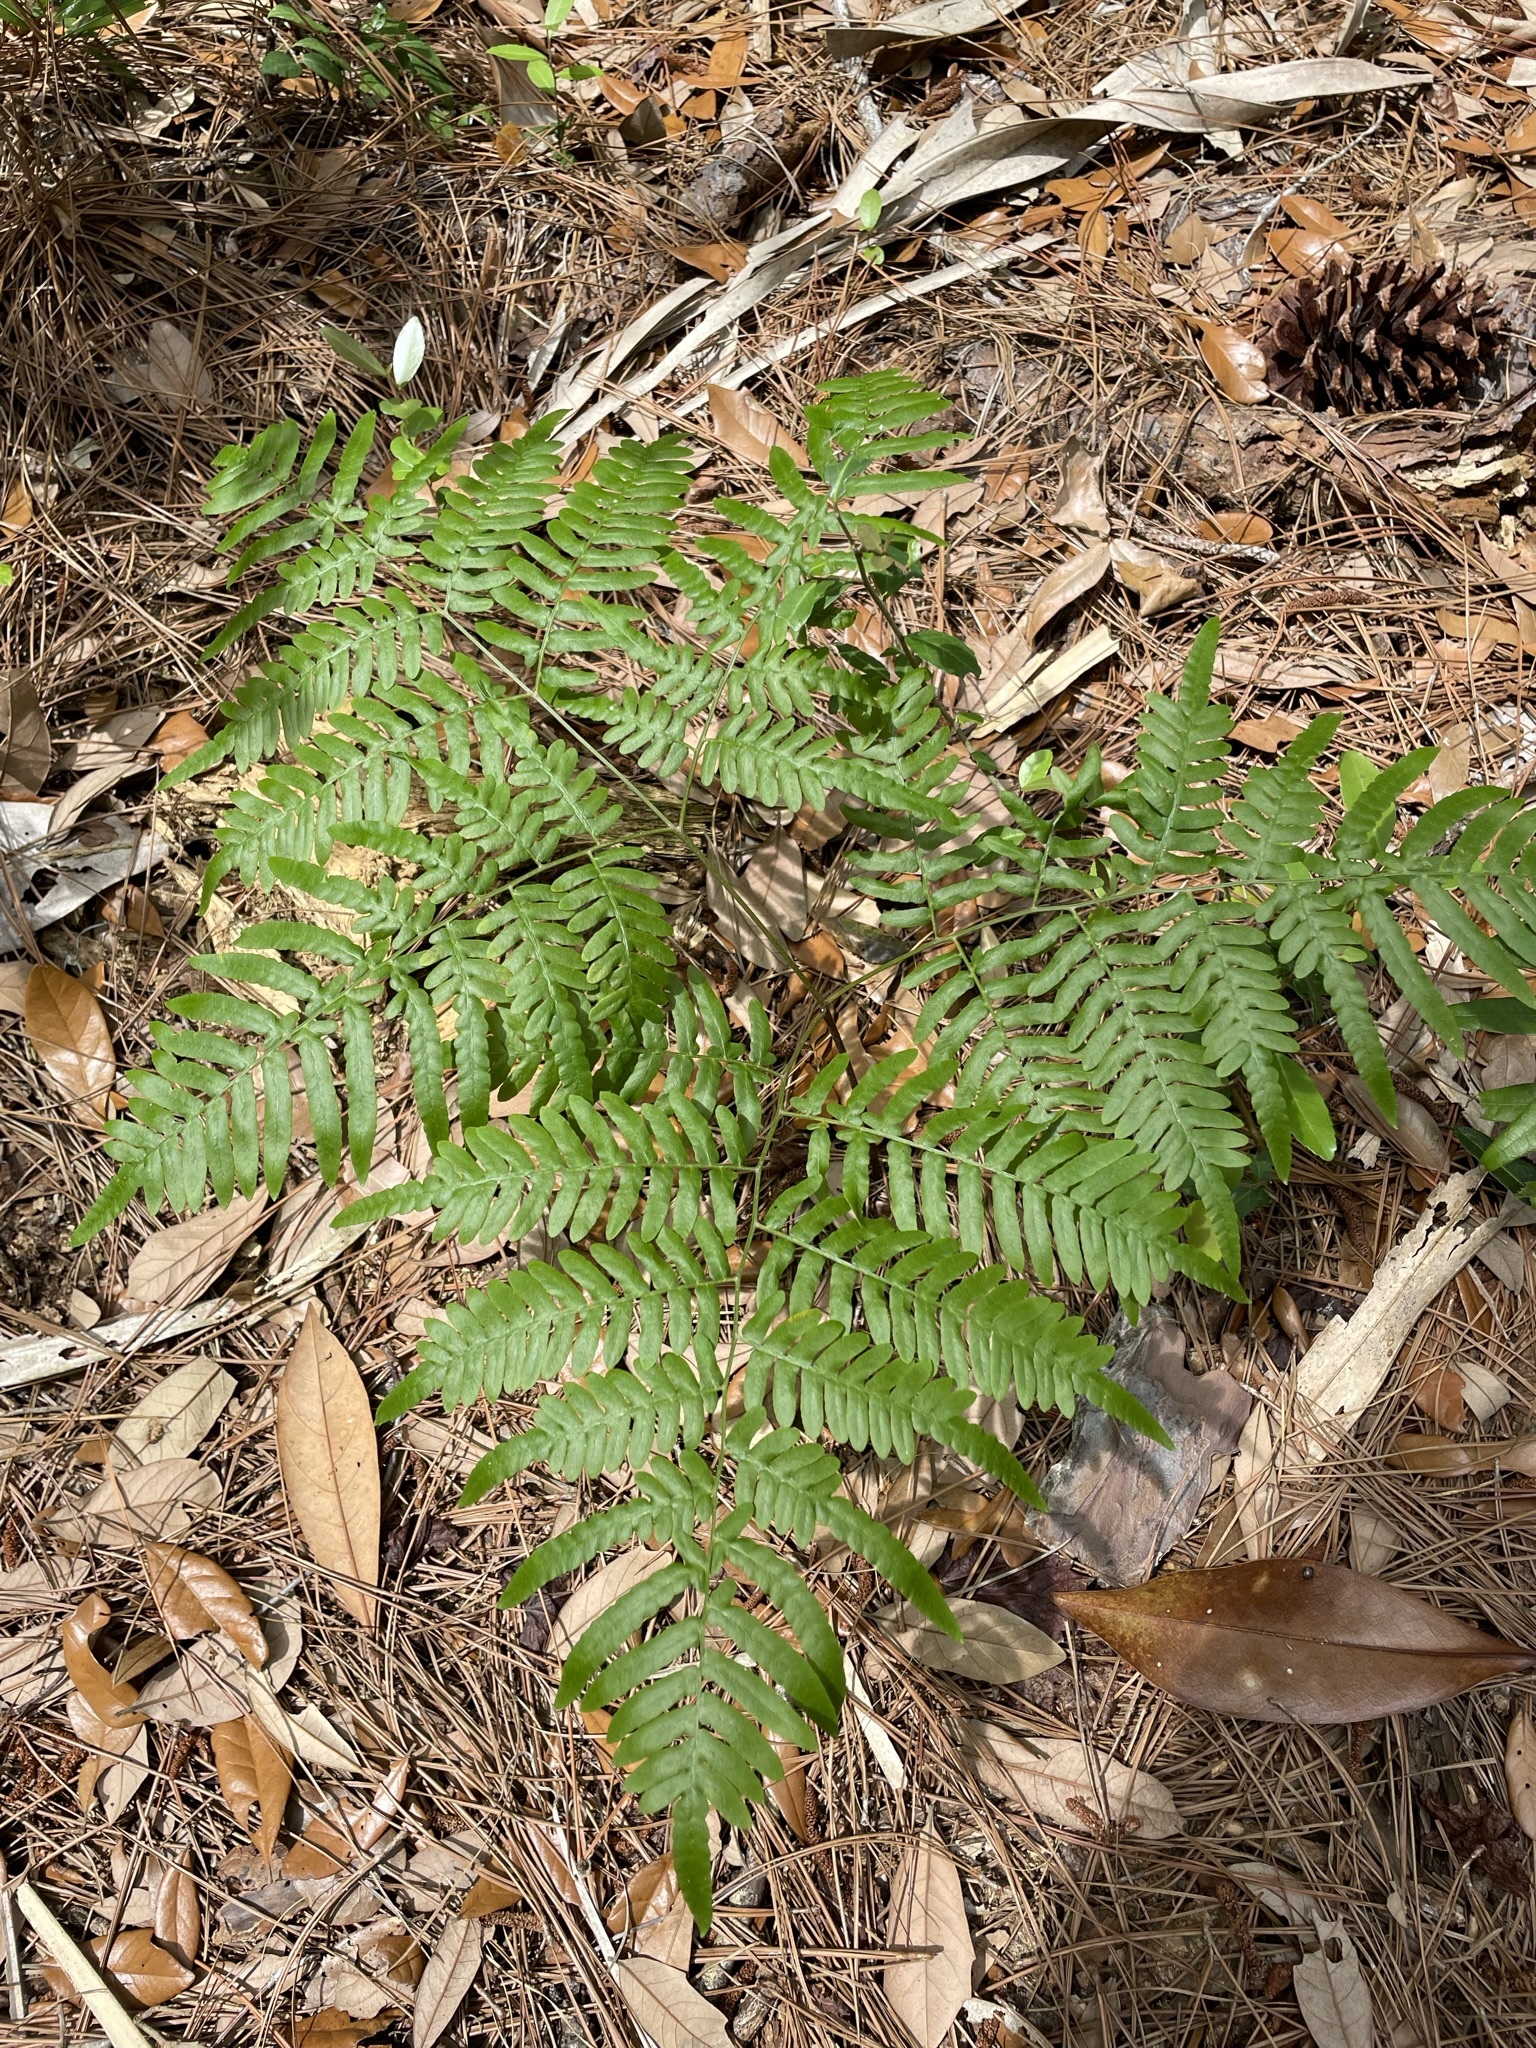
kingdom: Plantae
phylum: Tracheophyta
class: Polypodiopsida
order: Polypodiales
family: Dennstaedtiaceae
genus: Pteridium
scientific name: Pteridium aquilinum
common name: Bracken
